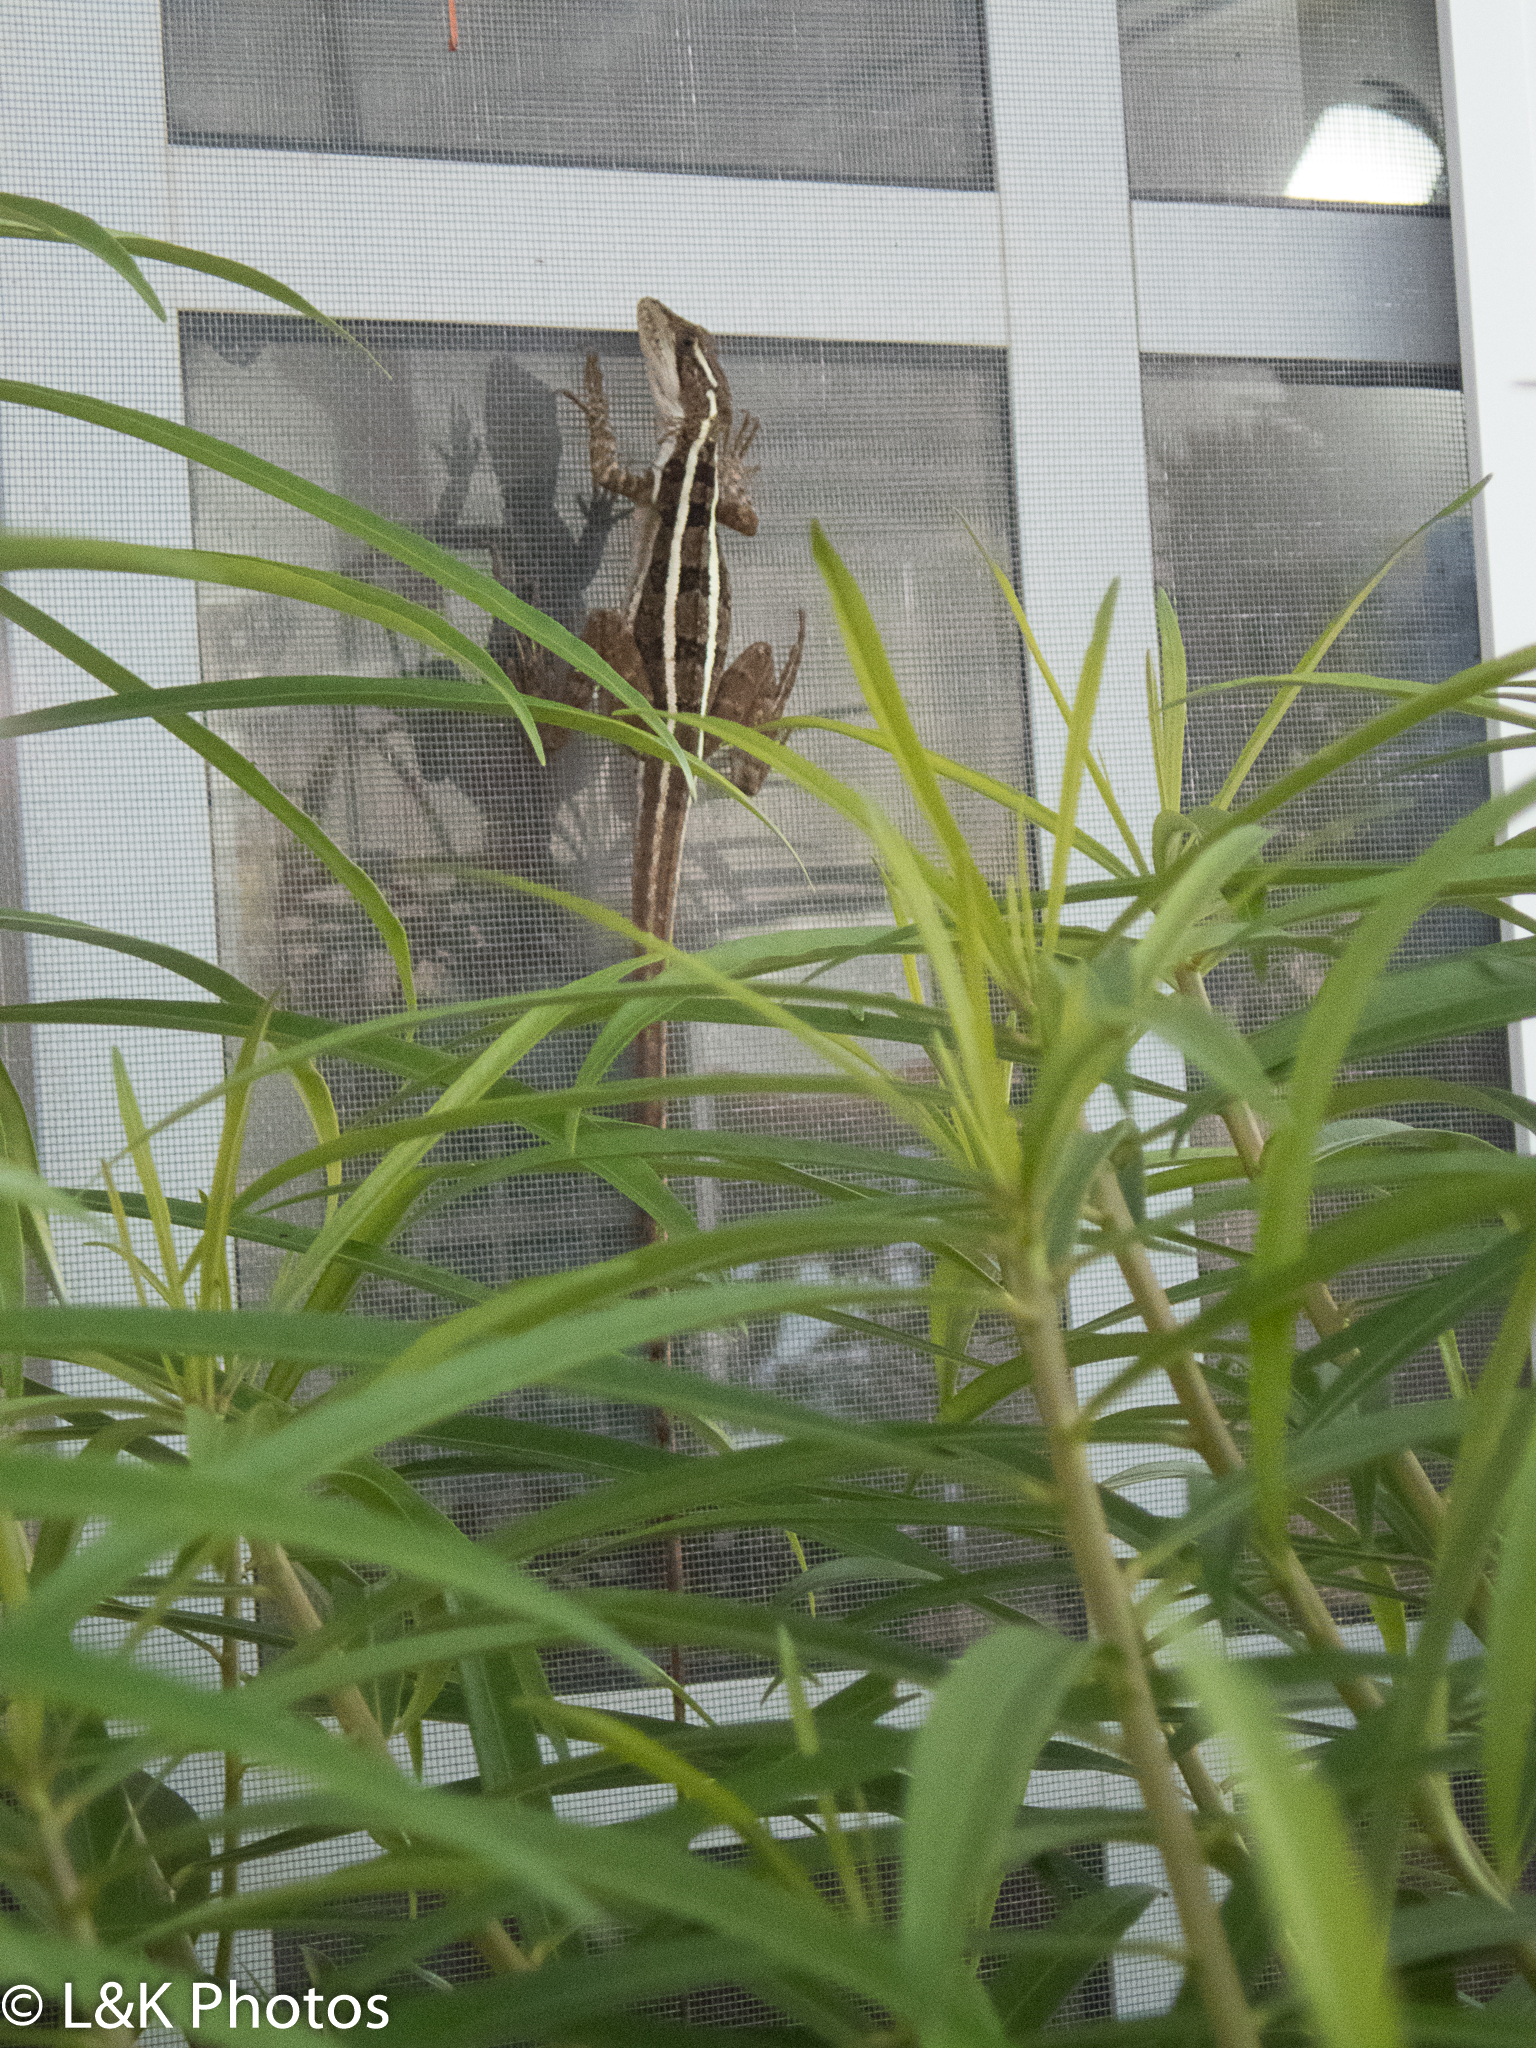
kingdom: Animalia
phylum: Chordata
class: Squamata
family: Corytophanidae
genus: Basiliscus
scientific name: Basiliscus vittatus
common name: Brown basilisk
